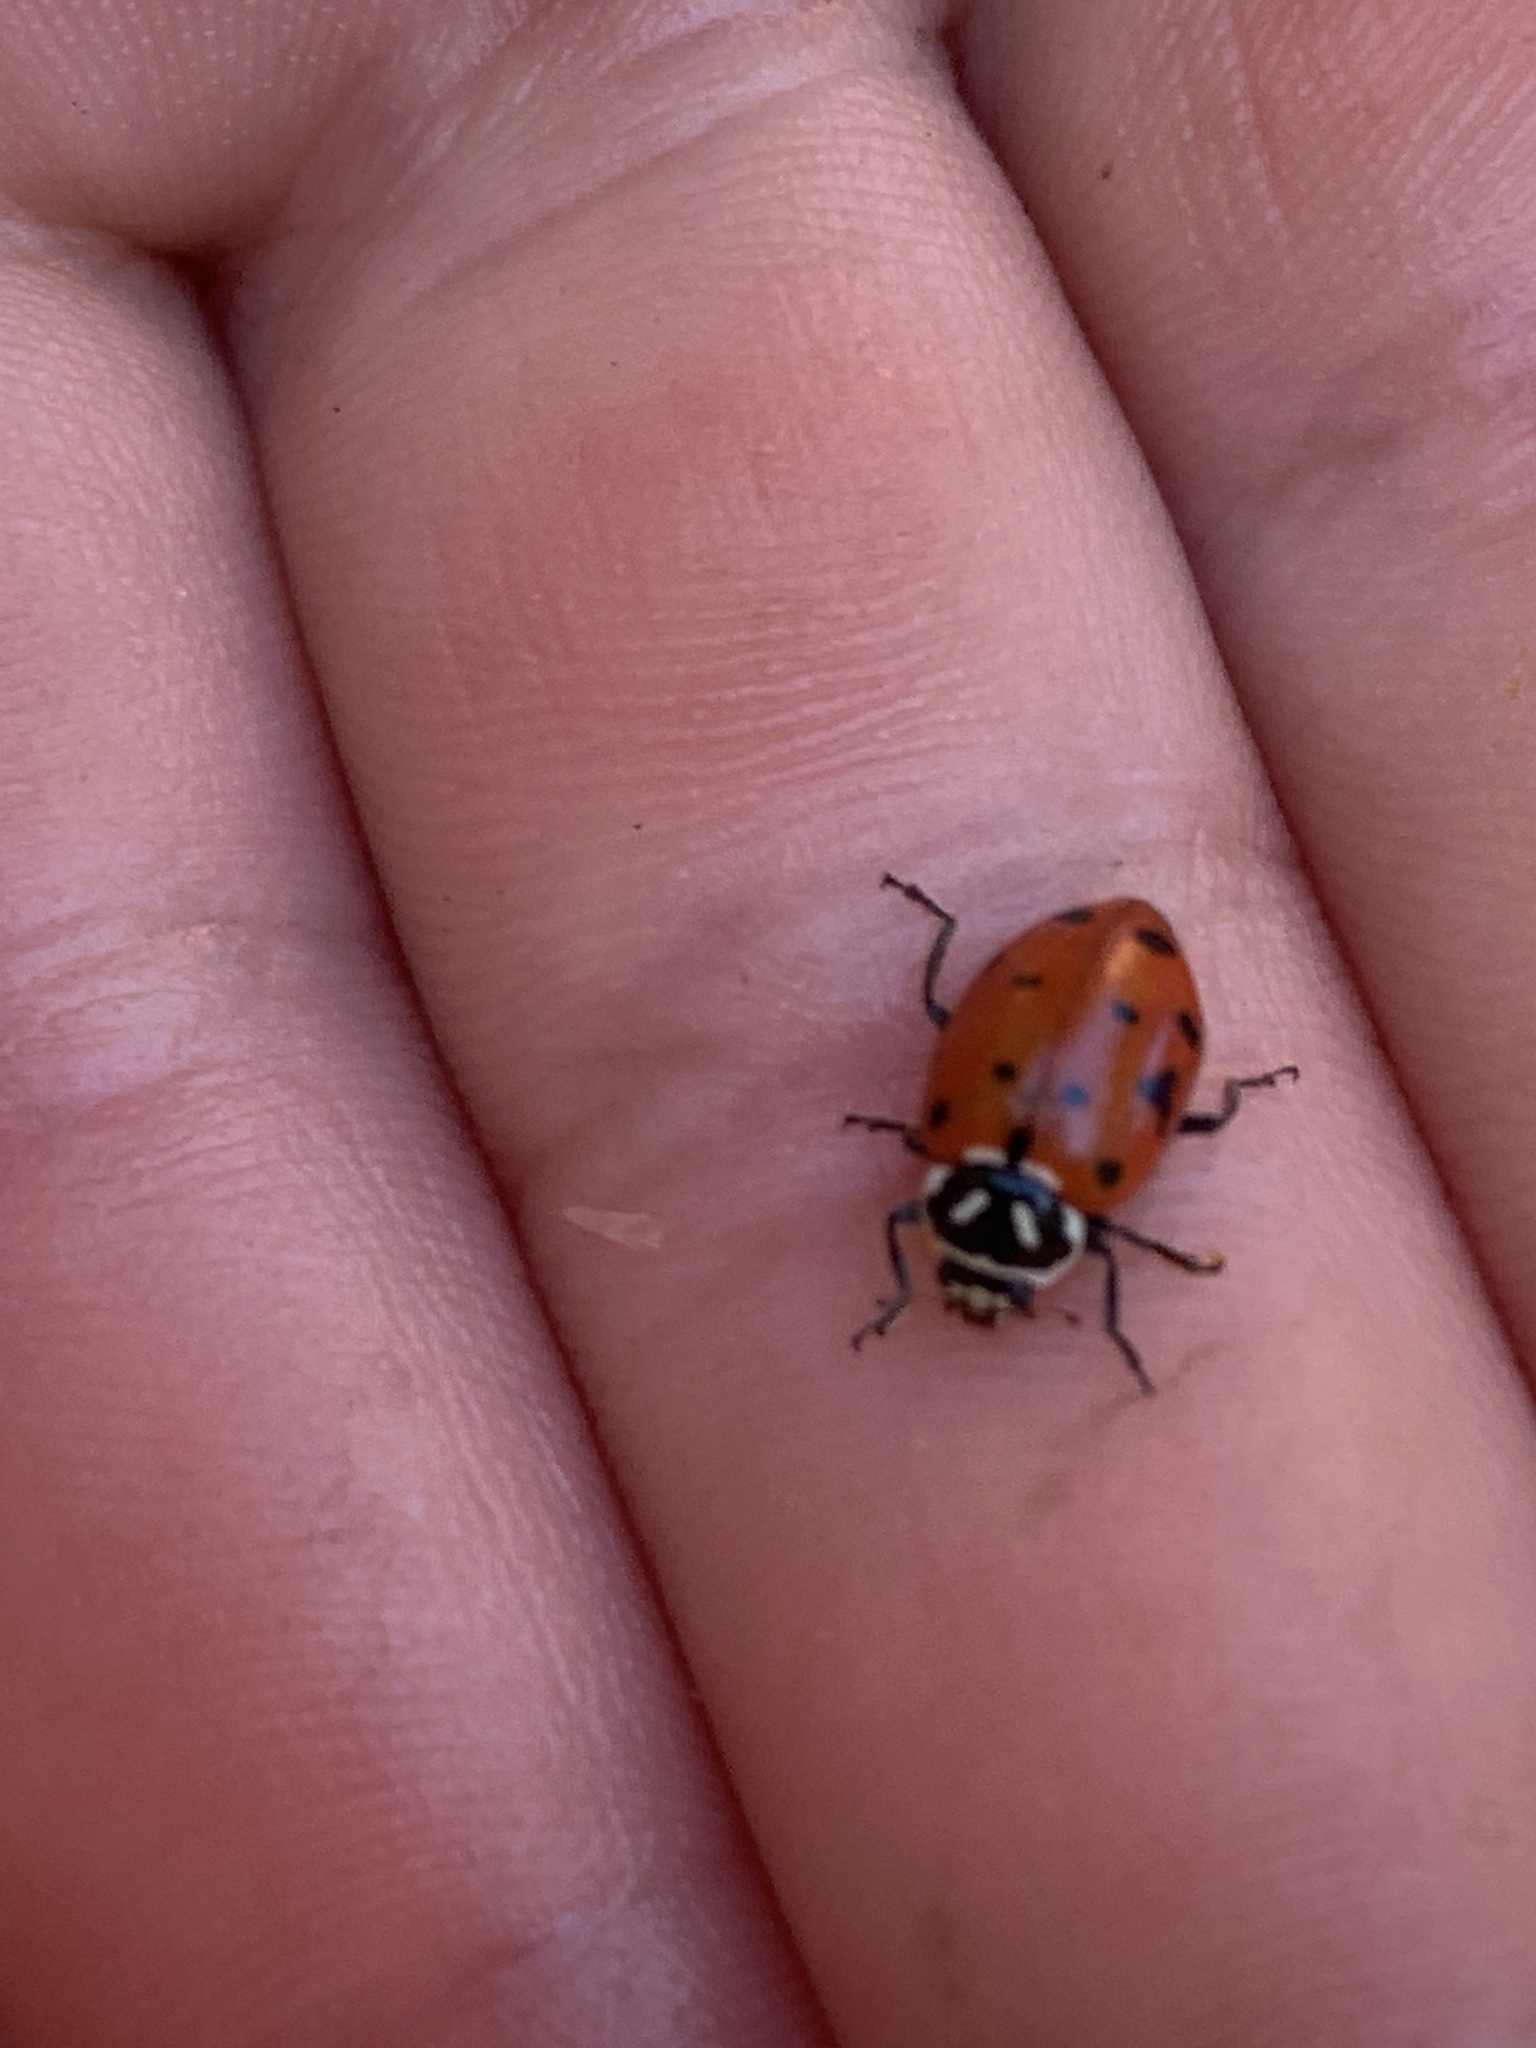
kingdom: Animalia
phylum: Arthropoda
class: Insecta
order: Coleoptera
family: Coccinellidae
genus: Hippodamia
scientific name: Hippodamia convergens
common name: Convergent lady beetle
